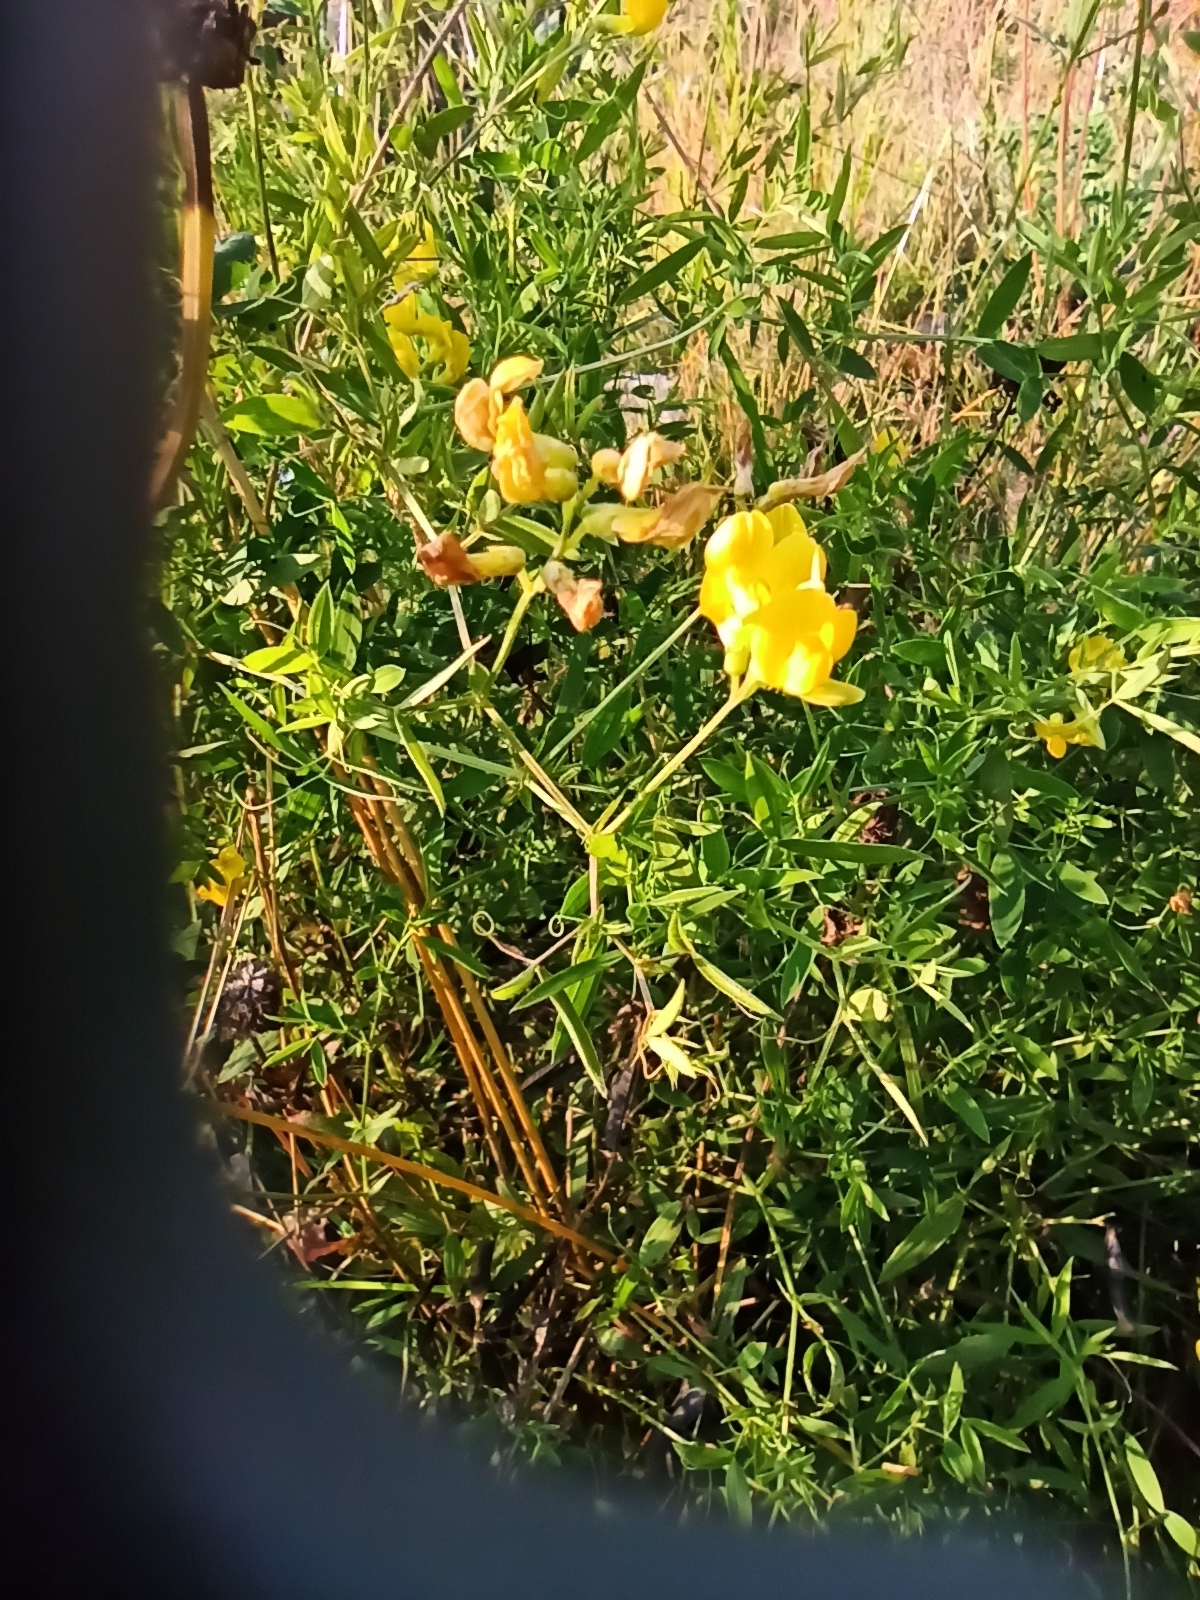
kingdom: Plantae
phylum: Tracheophyta
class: Magnoliopsida
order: Fabales
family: Fabaceae
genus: Lathyrus
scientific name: Lathyrus pratensis
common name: Meadow vetchling
